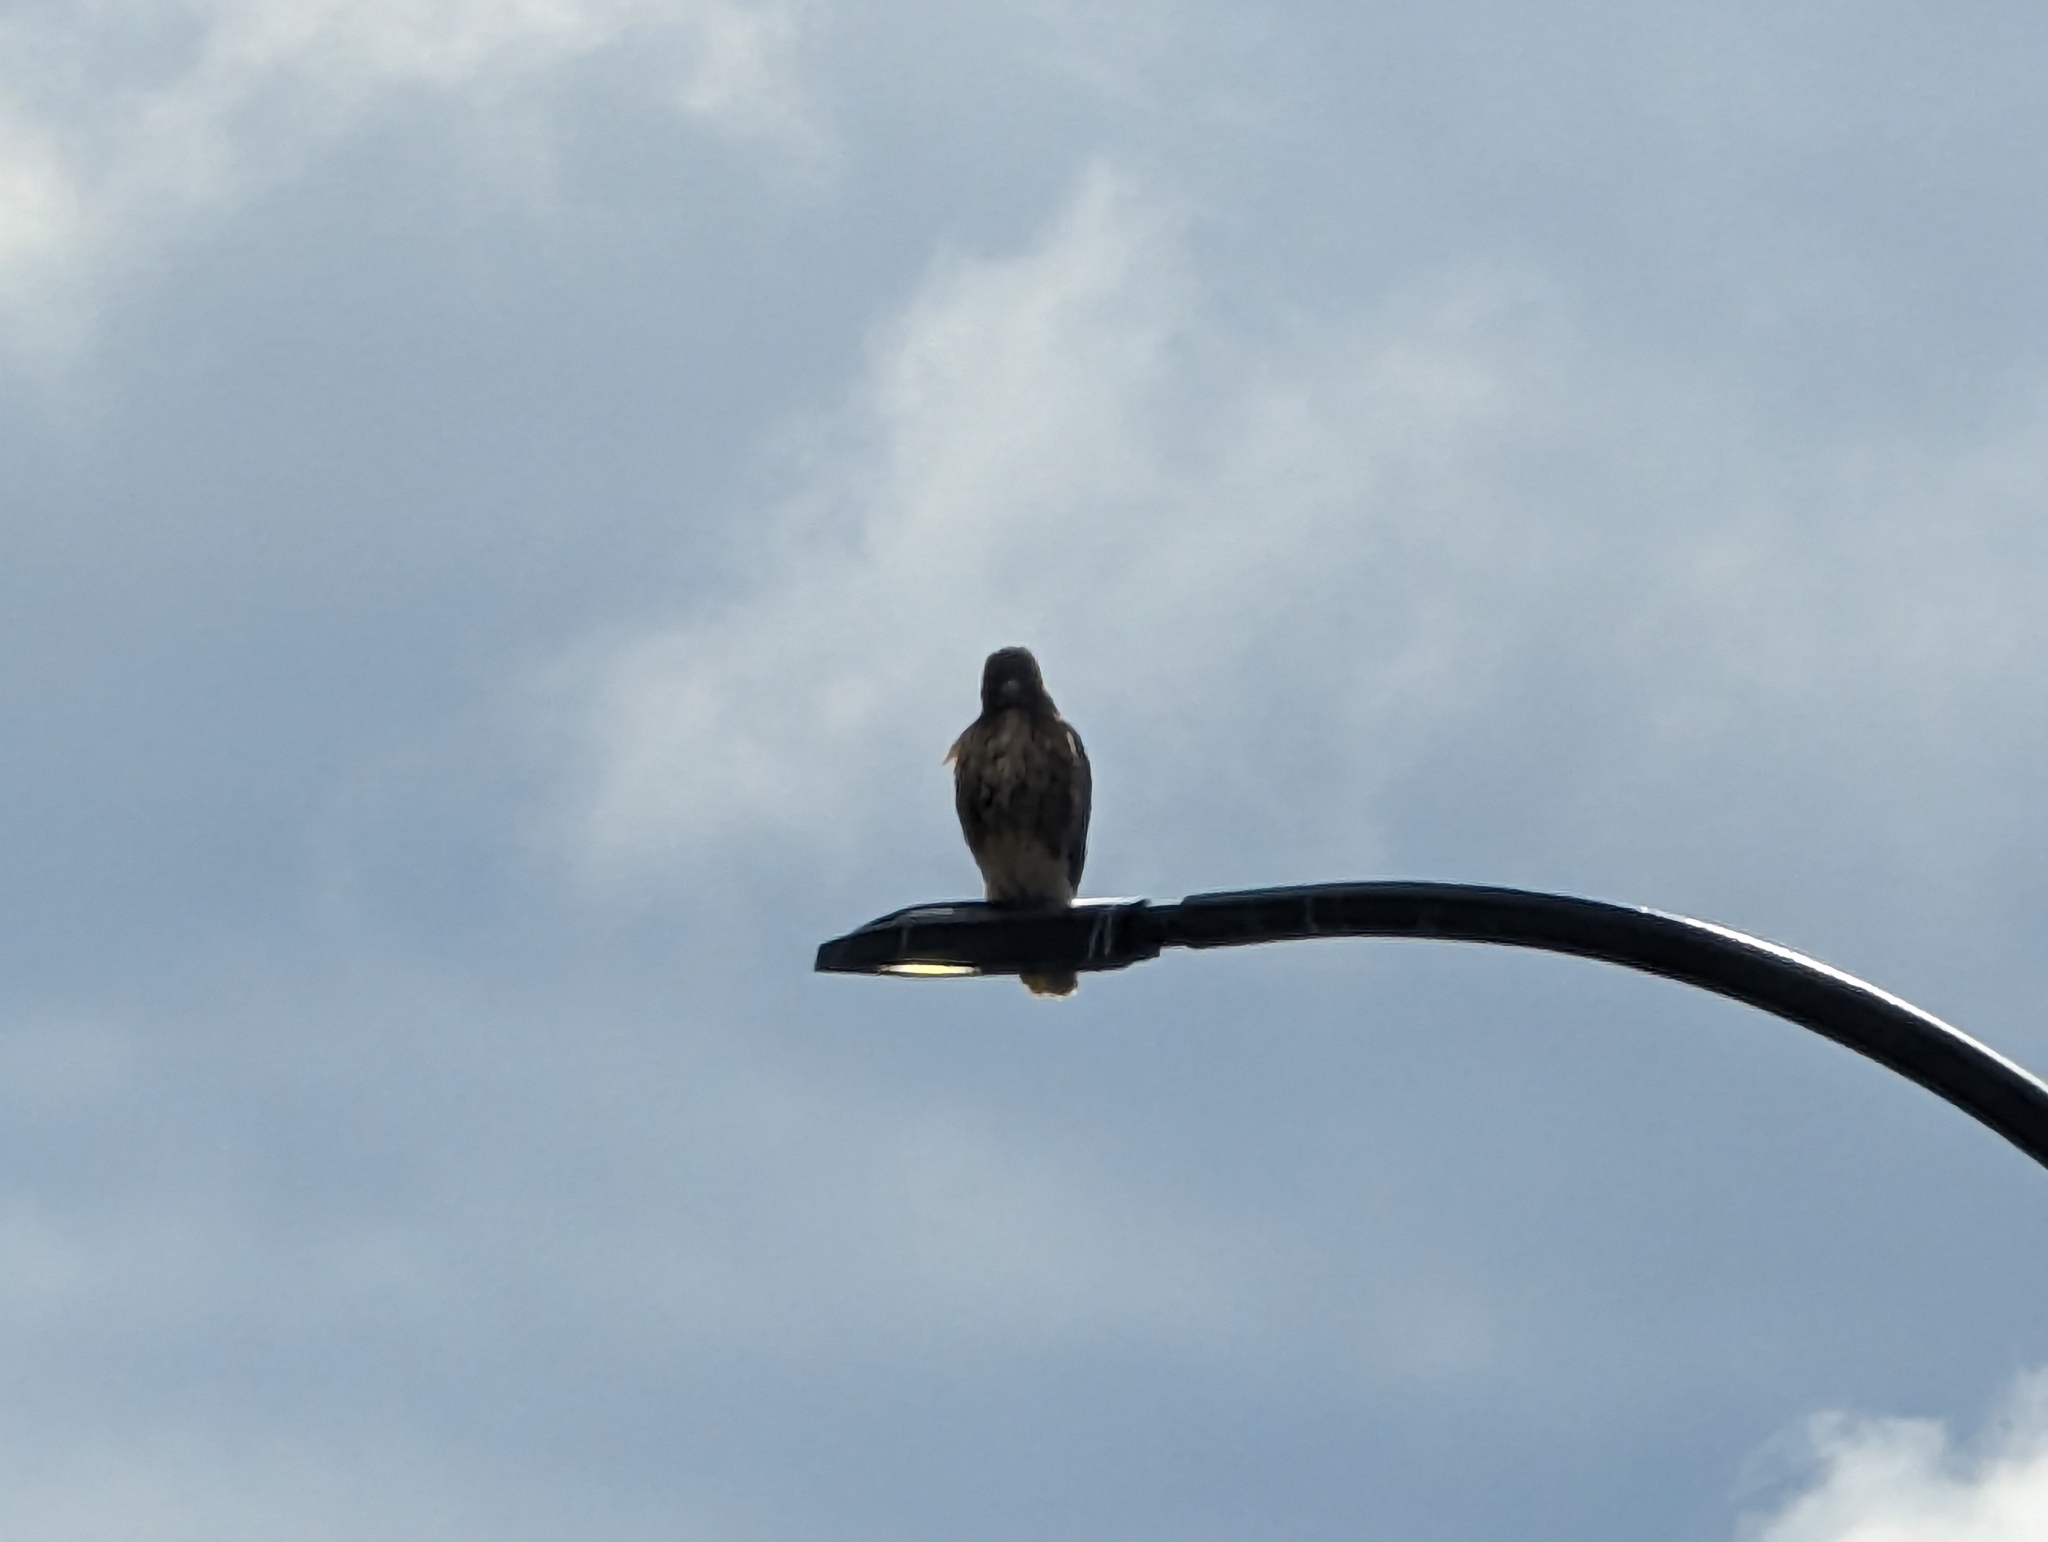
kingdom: Animalia
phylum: Chordata
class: Aves
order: Accipitriformes
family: Accipitridae
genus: Buteo
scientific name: Buteo jamaicensis
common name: Red-tailed hawk
